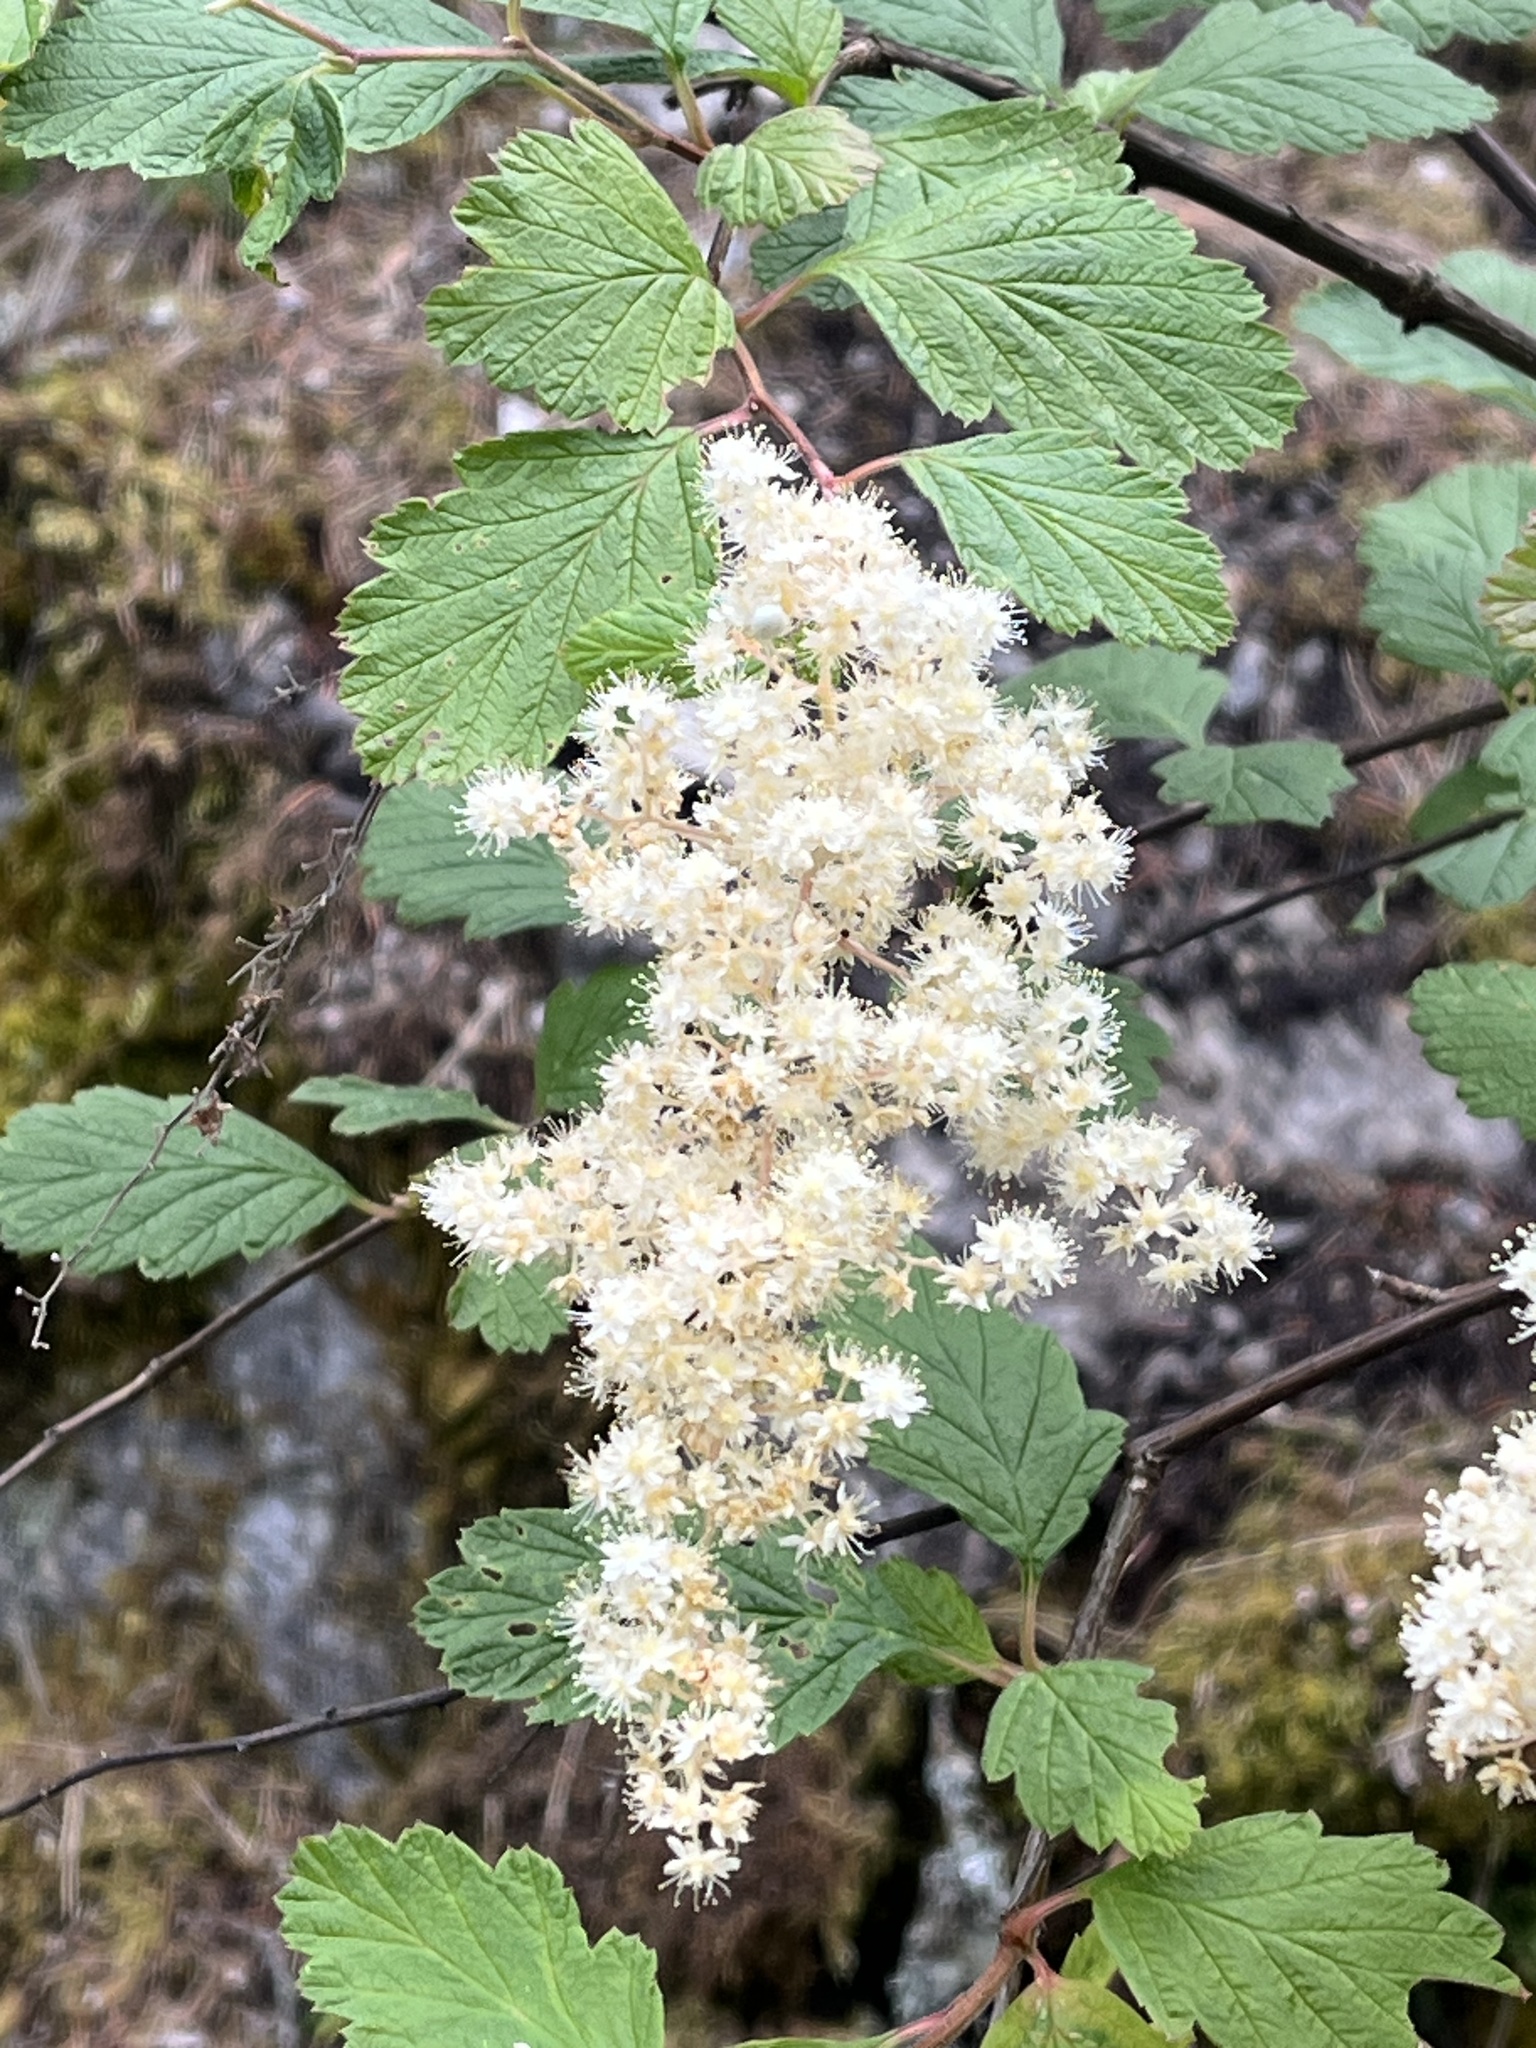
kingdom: Plantae
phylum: Tracheophyta
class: Magnoliopsida
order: Rosales
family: Rosaceae
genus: Holodiscus
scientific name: Holodiscus discolor
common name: Oceanspray
